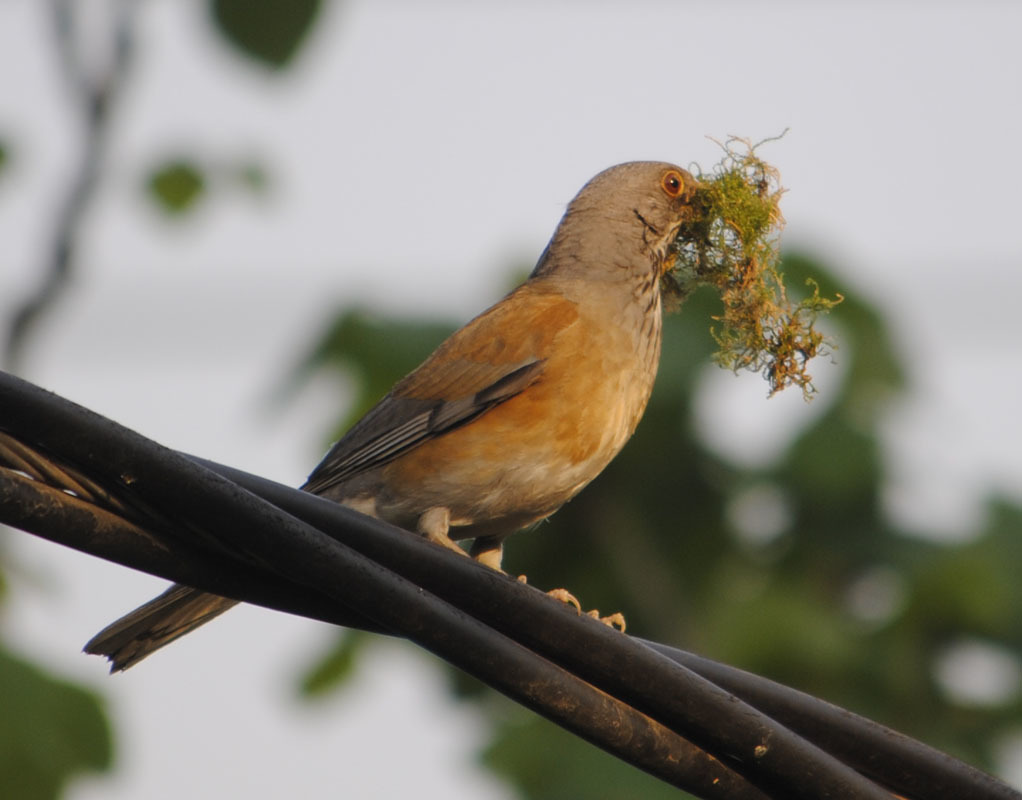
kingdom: Animalia
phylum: Chordata
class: Aves
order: Passeriformes
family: Turdidae
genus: Turdus
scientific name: Turdus rufopalliatus
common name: Rufous-backed robin
